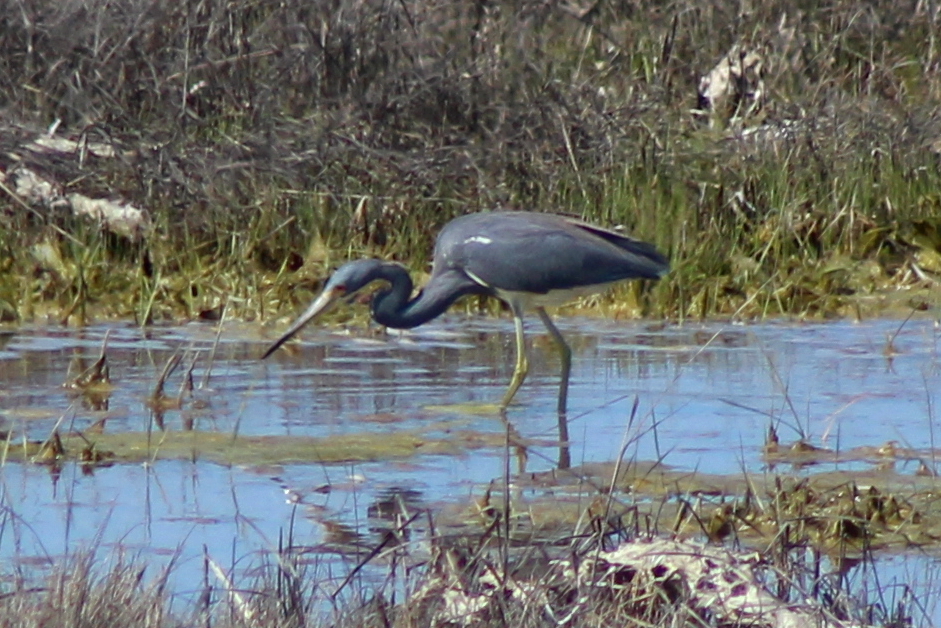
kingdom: Animalia
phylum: Chordata
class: Aves
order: Pelecaniformes
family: Ardeidae
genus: Egretta
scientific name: Egretta tricolor
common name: Tricolored heron
